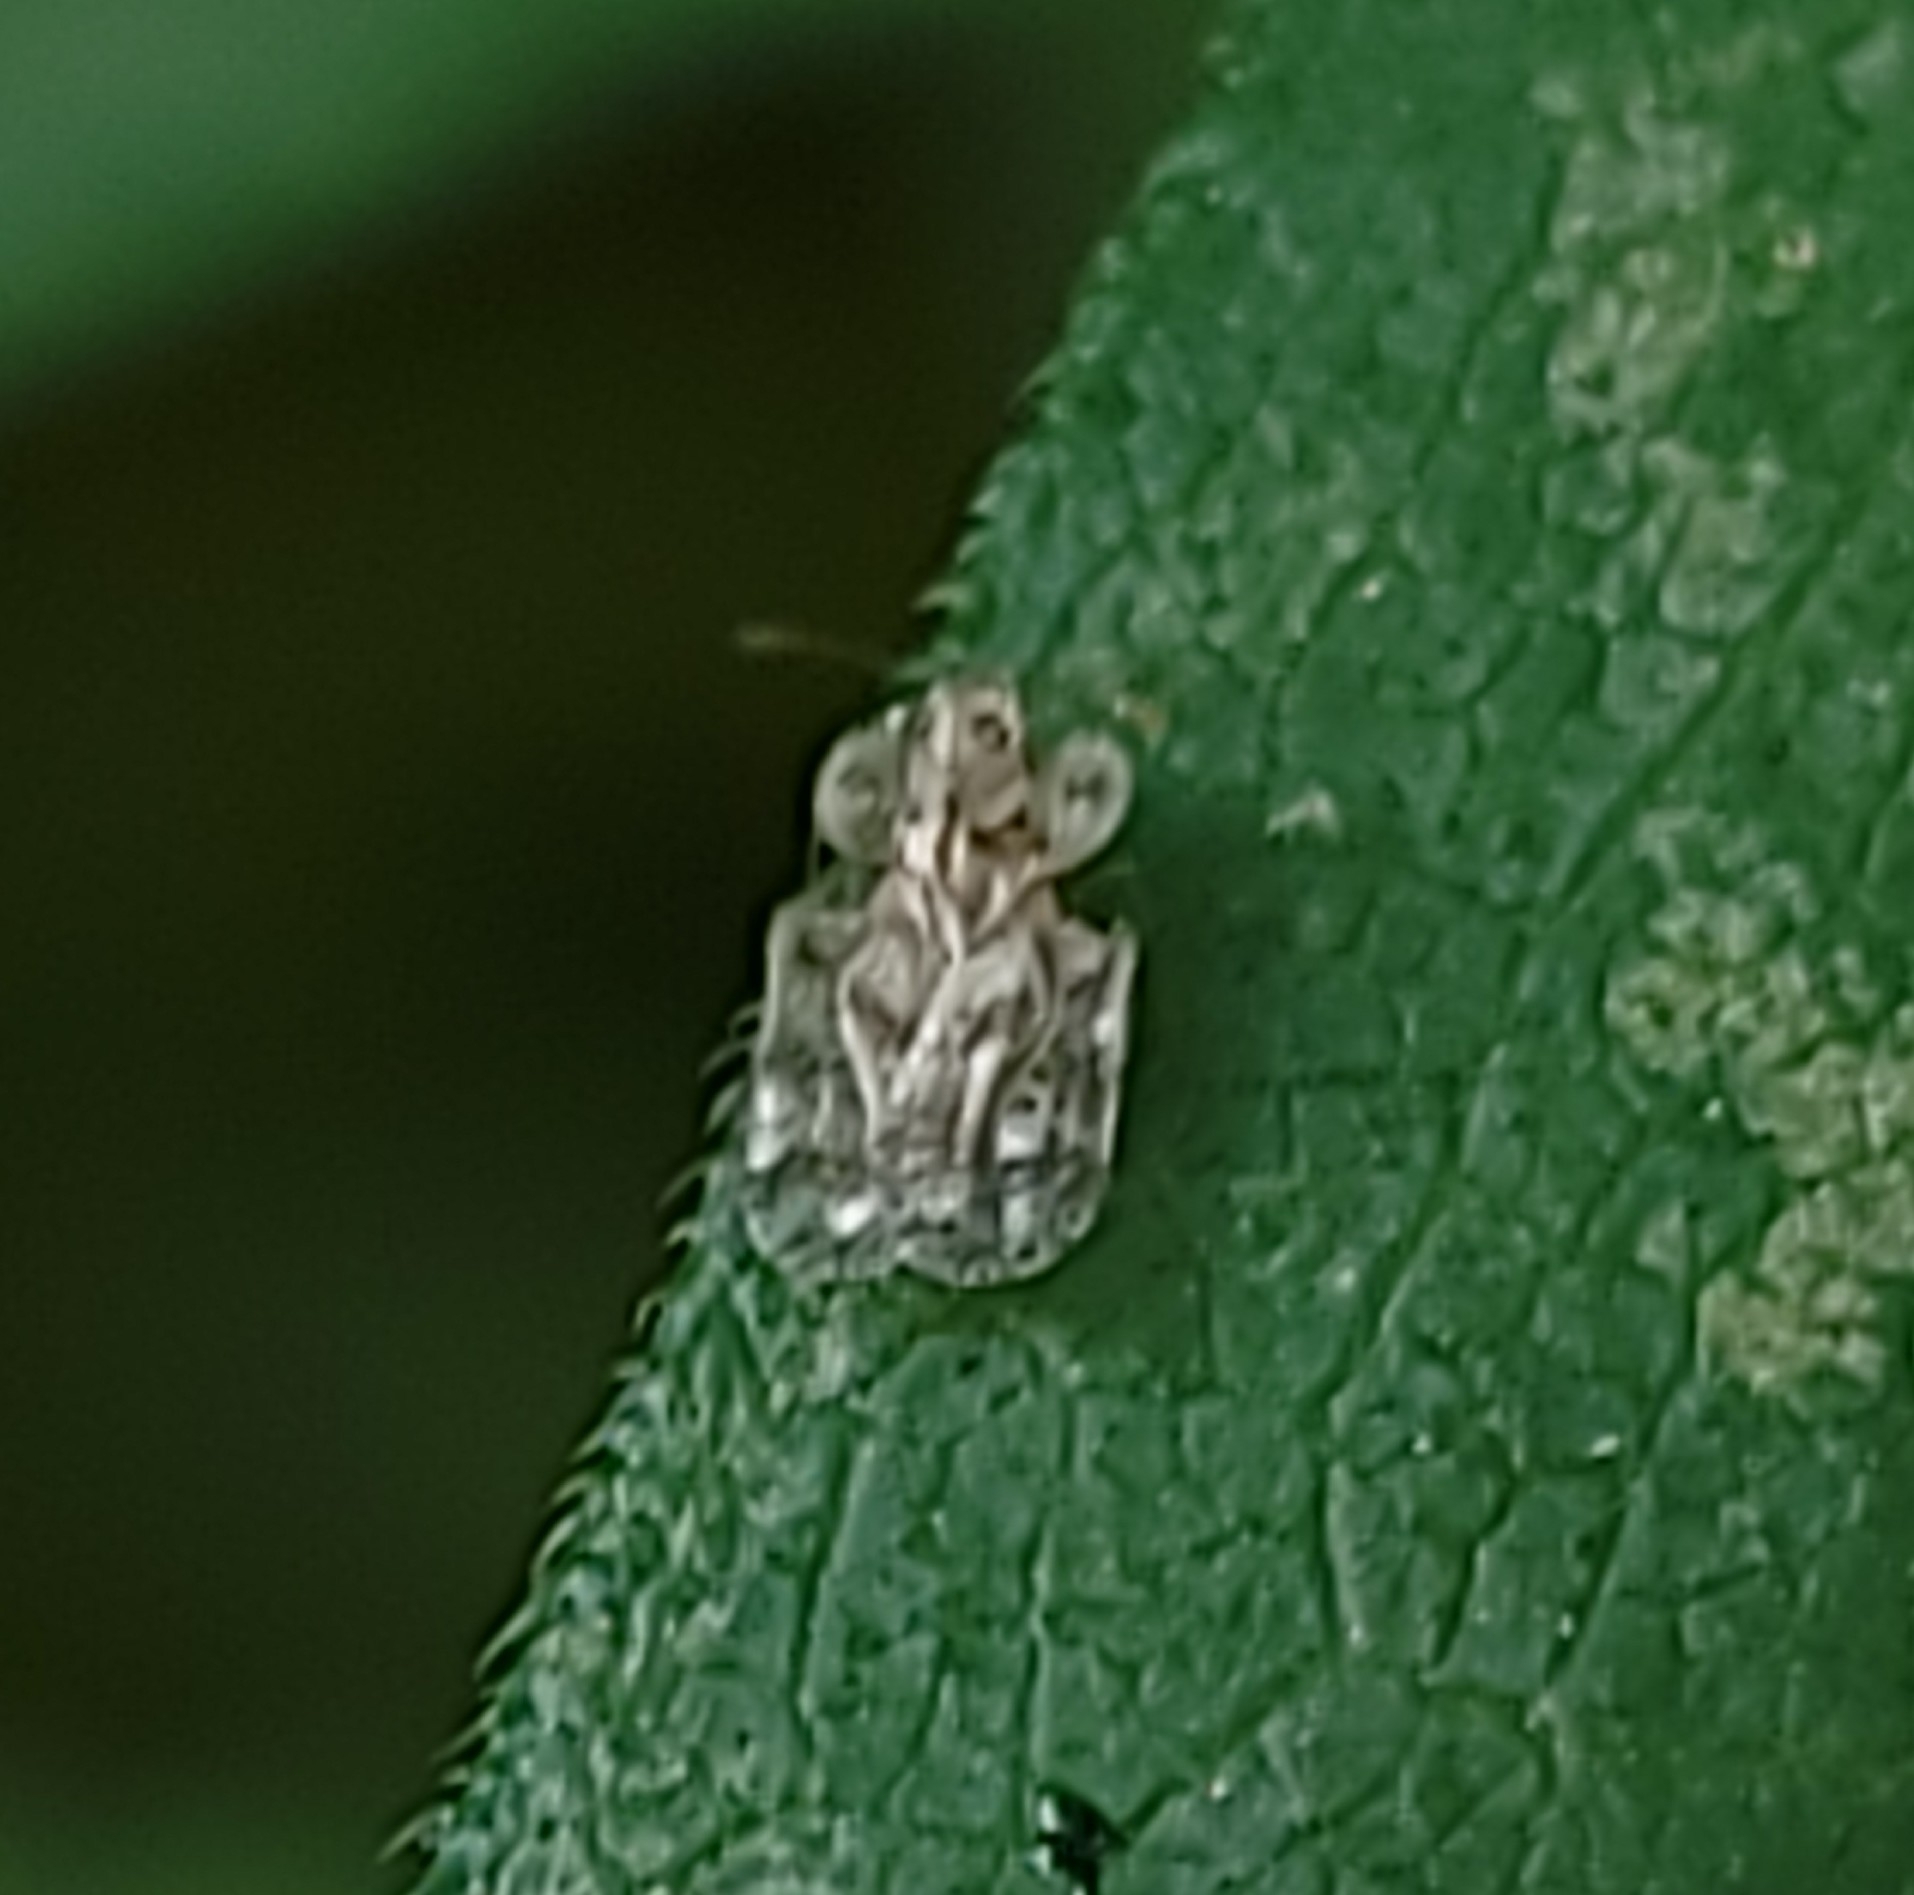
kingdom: Animalia
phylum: Arthropoda
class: Insecta
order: Hemiptera
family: Tingidae
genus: Corythucha
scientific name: Corythucha marmorata
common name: Chrysanthemum lace bug
